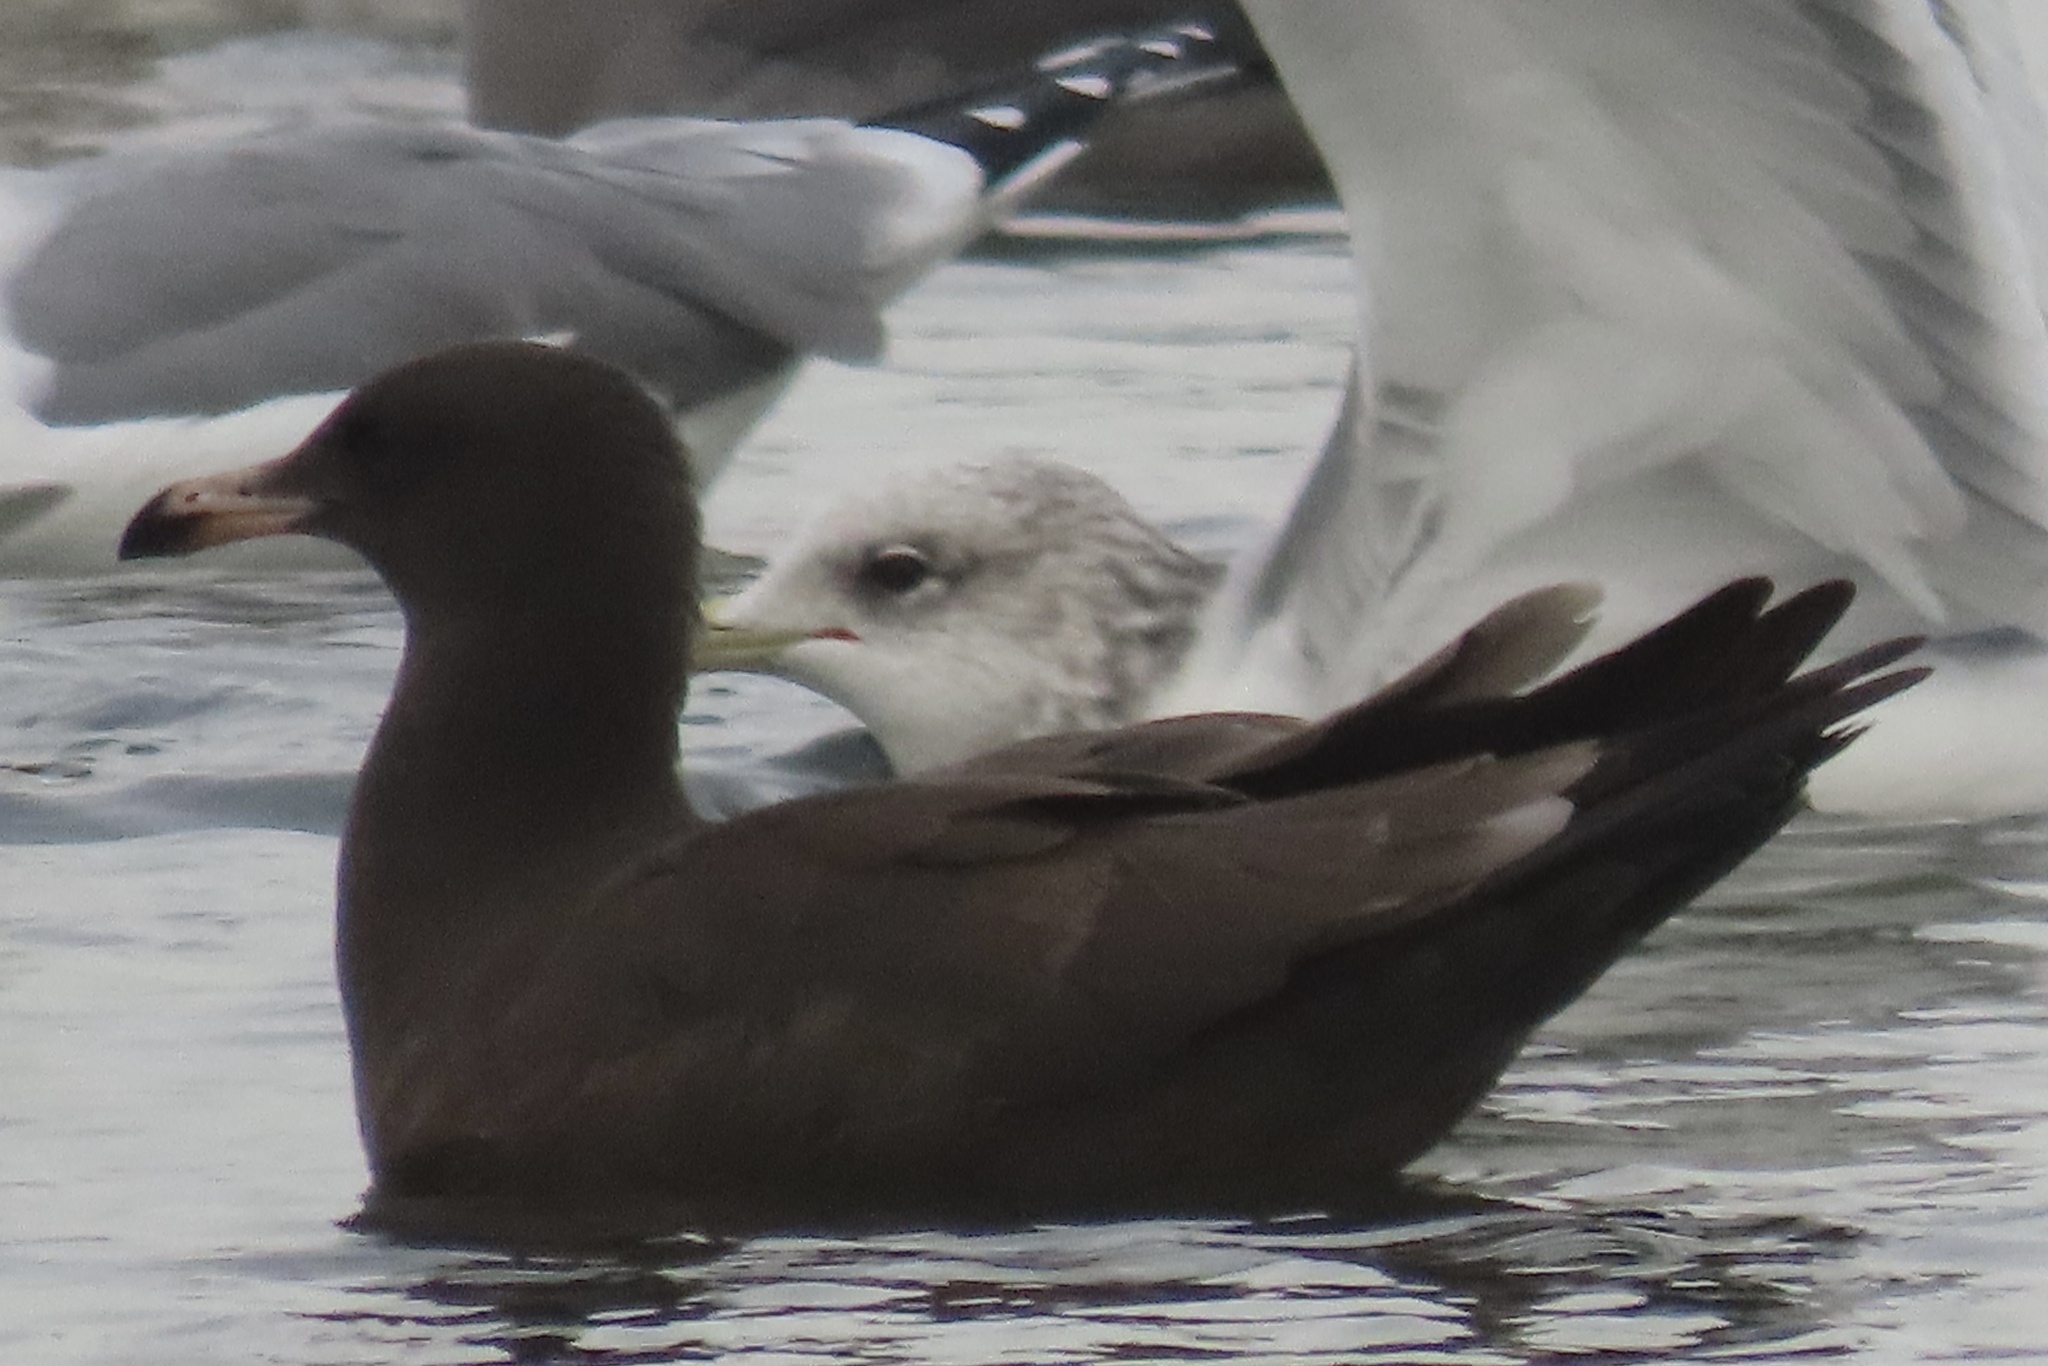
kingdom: Animalia
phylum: Chordata
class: Aves
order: Charadriiformes
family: Laridae
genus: Larus
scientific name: Larus heermanni
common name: Heermann's gull
